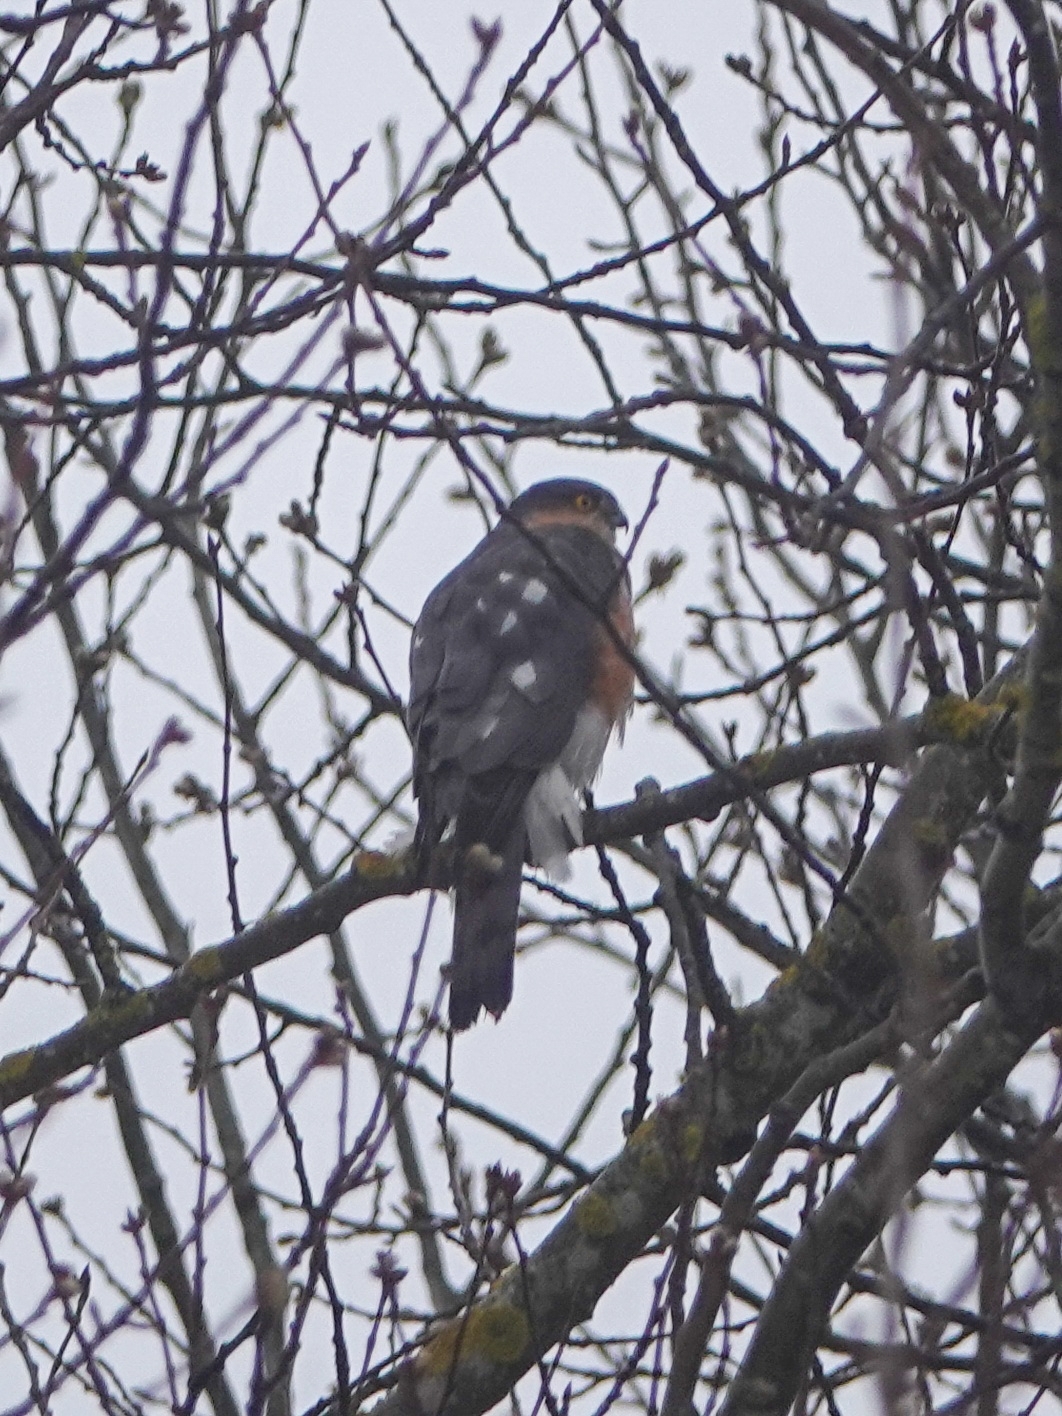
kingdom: Animalia
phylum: Chordata
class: Aves
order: Accipitriformes
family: Accipitridae
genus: Accipiter
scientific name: Accipiter nisus
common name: Eurasian sparrowhawk
